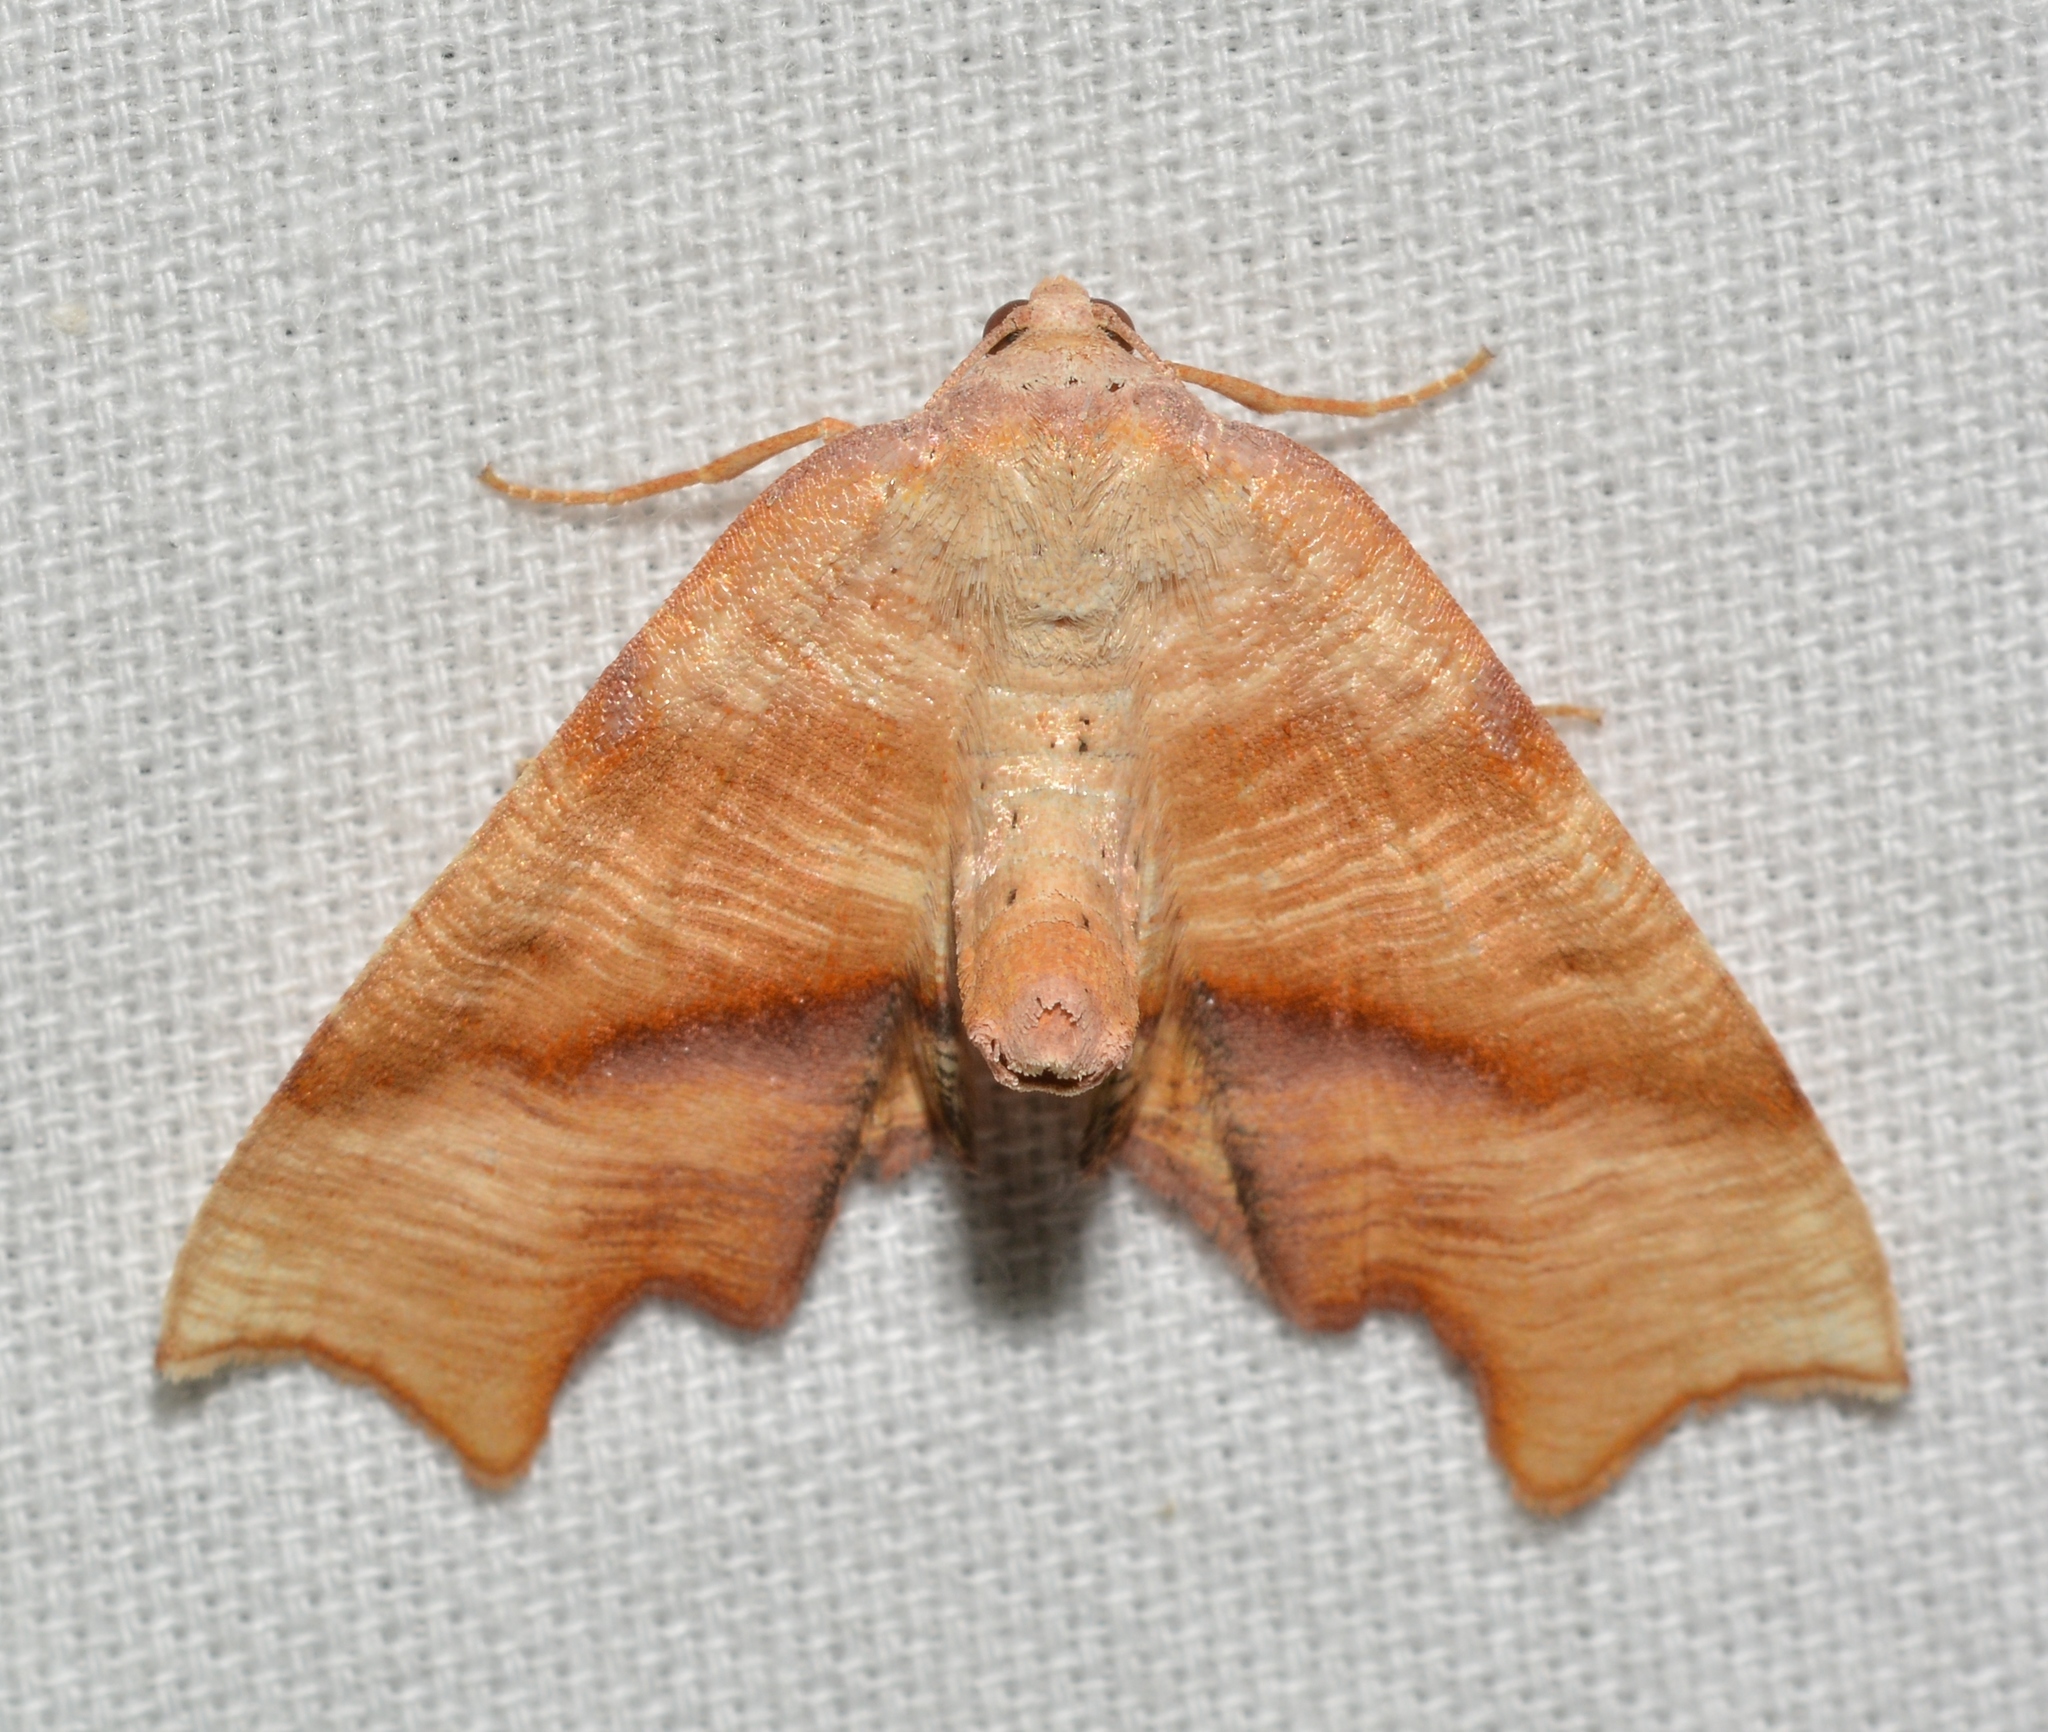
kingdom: Animalia
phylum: Arthropoda
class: Insecta
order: Lepidoptera
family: Geometridae
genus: Plagodis
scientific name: Plagodis fervidaria
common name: Fervid plagodis
